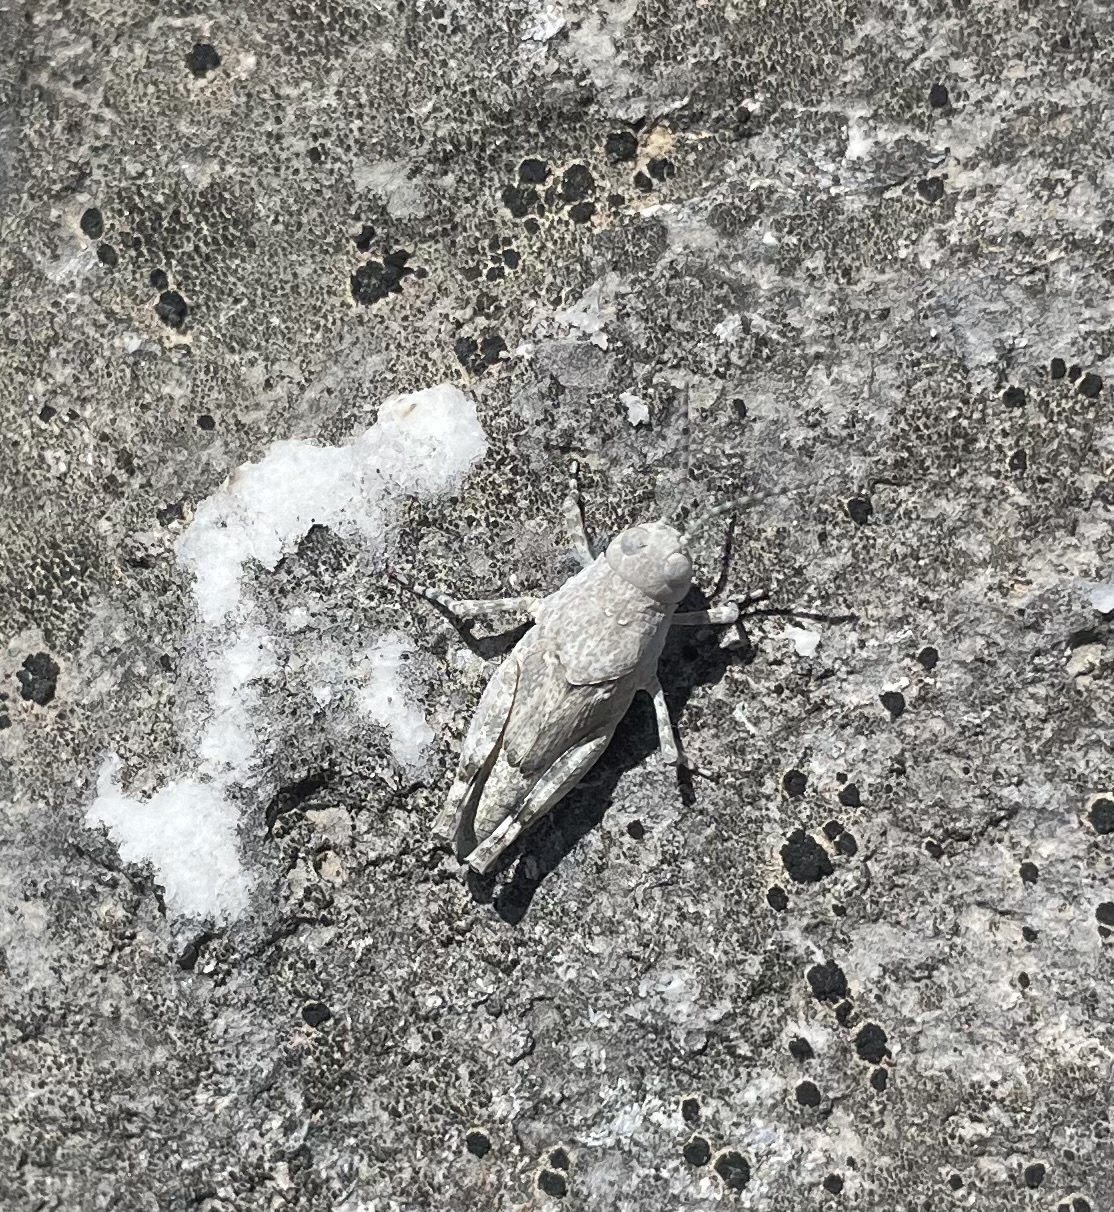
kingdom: Animalia
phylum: Arthropoda
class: Insecta
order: Orthoptera
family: Acrididae
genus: Sphingonotus
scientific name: Sphingonotus caerulans
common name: Blue-winged locust
